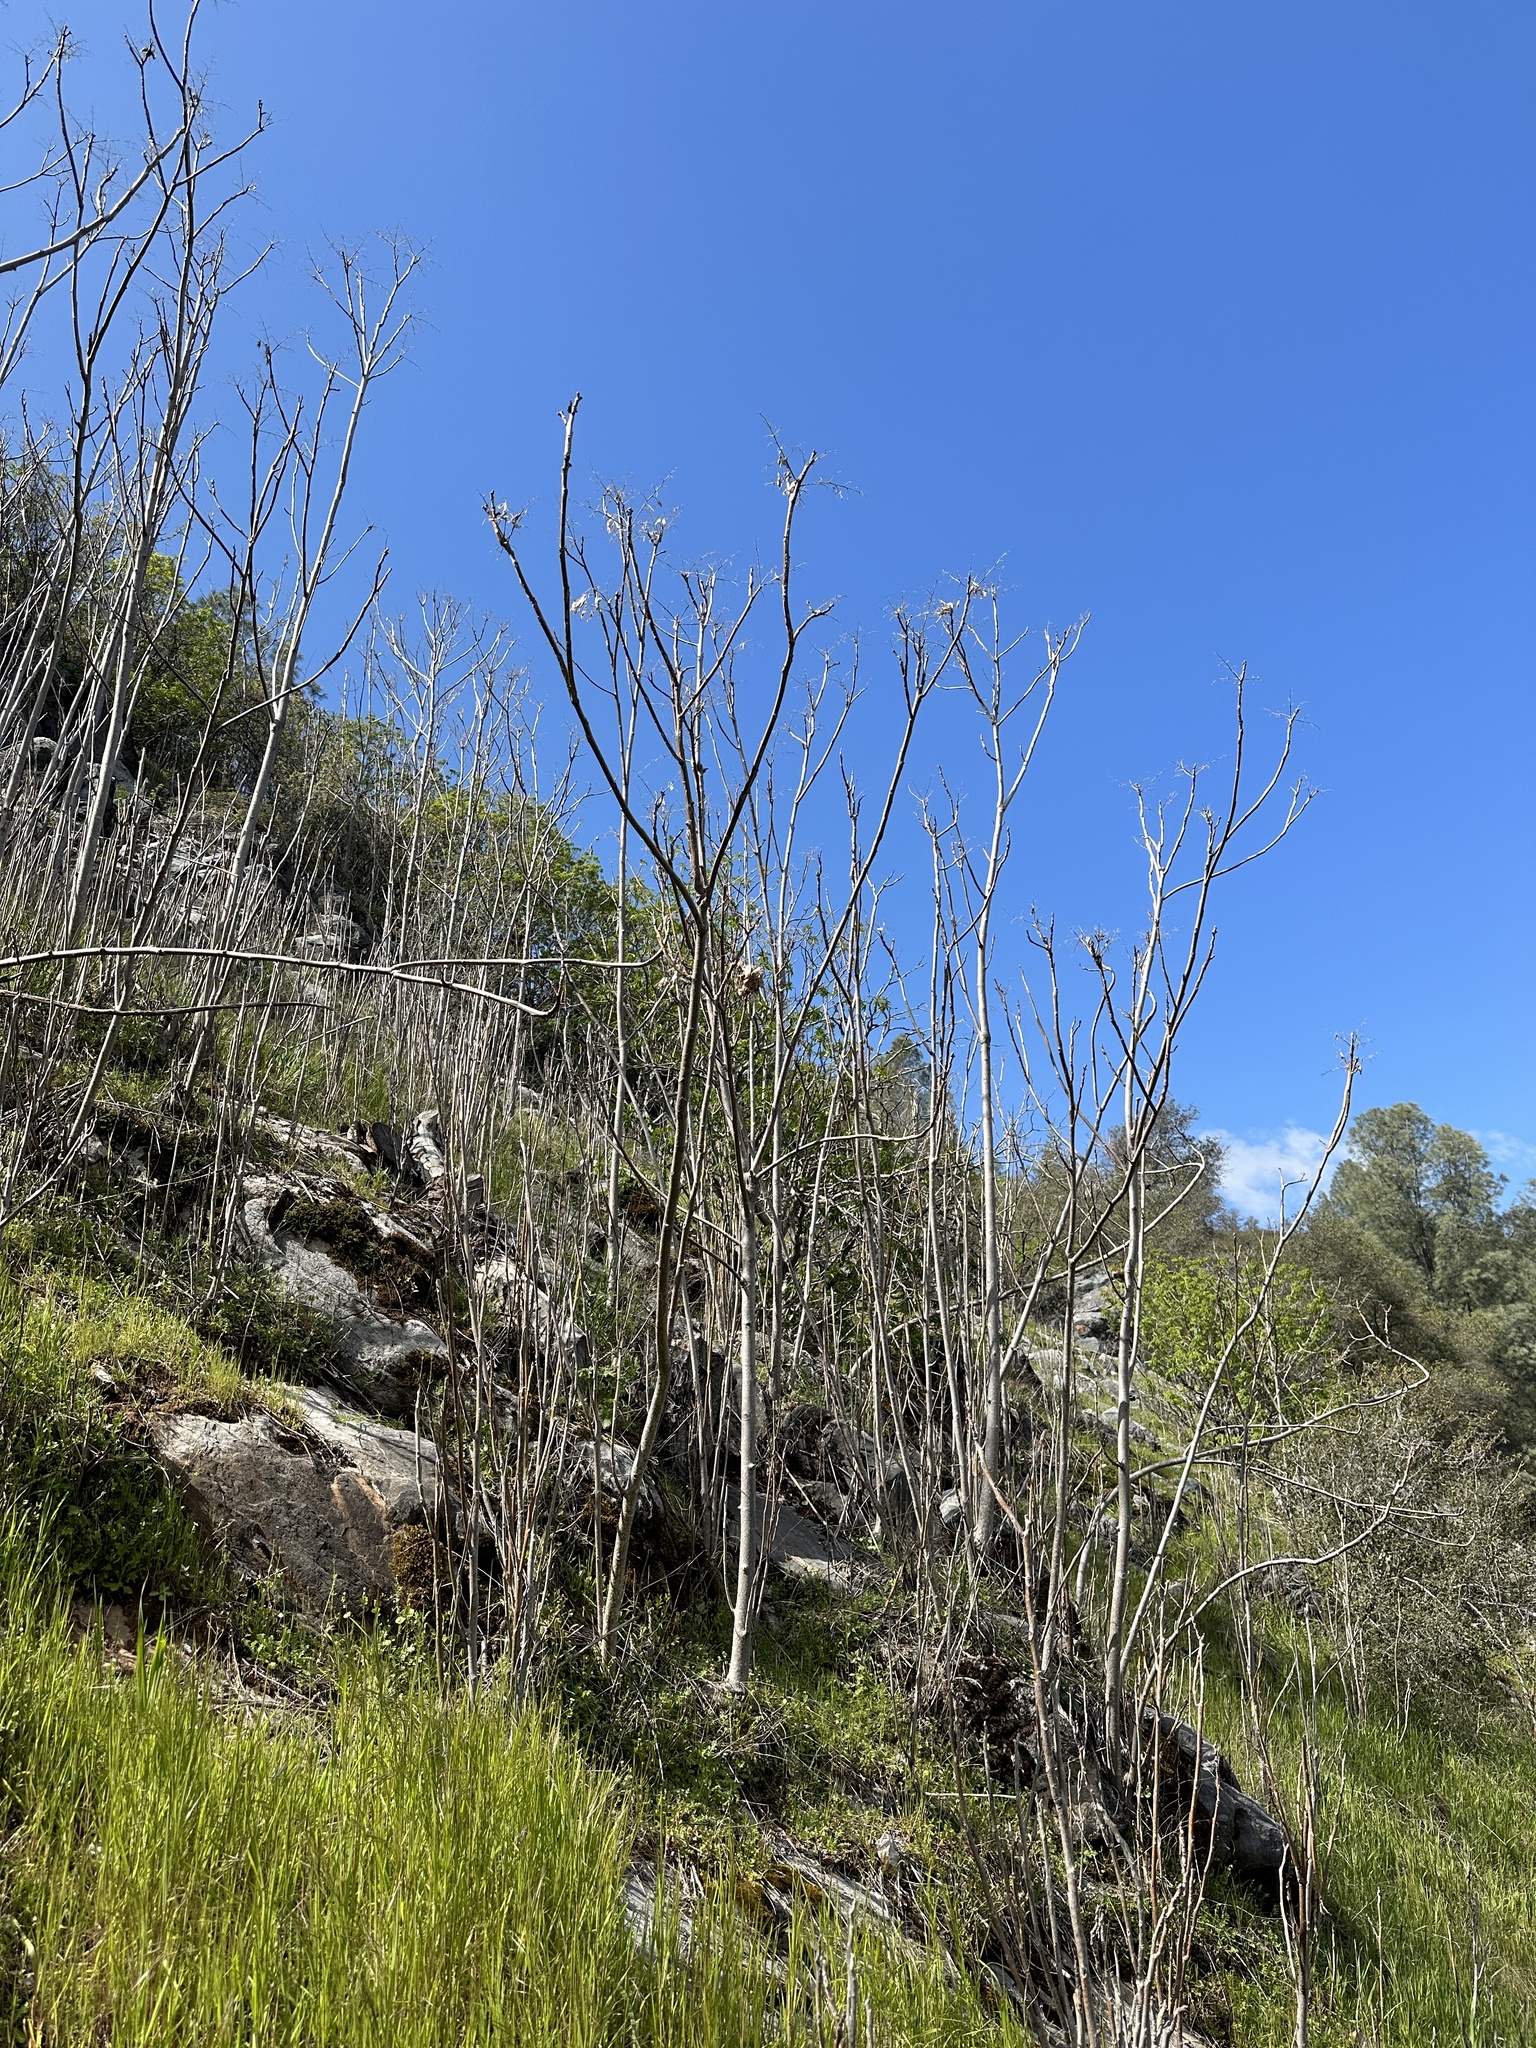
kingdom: Plantae
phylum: Tracheophyta
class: Magnoliopsida
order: Sapindales
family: Simaroubaceae
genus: Ailanthus
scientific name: Ailanthus altissima
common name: Tree-of-heaven
